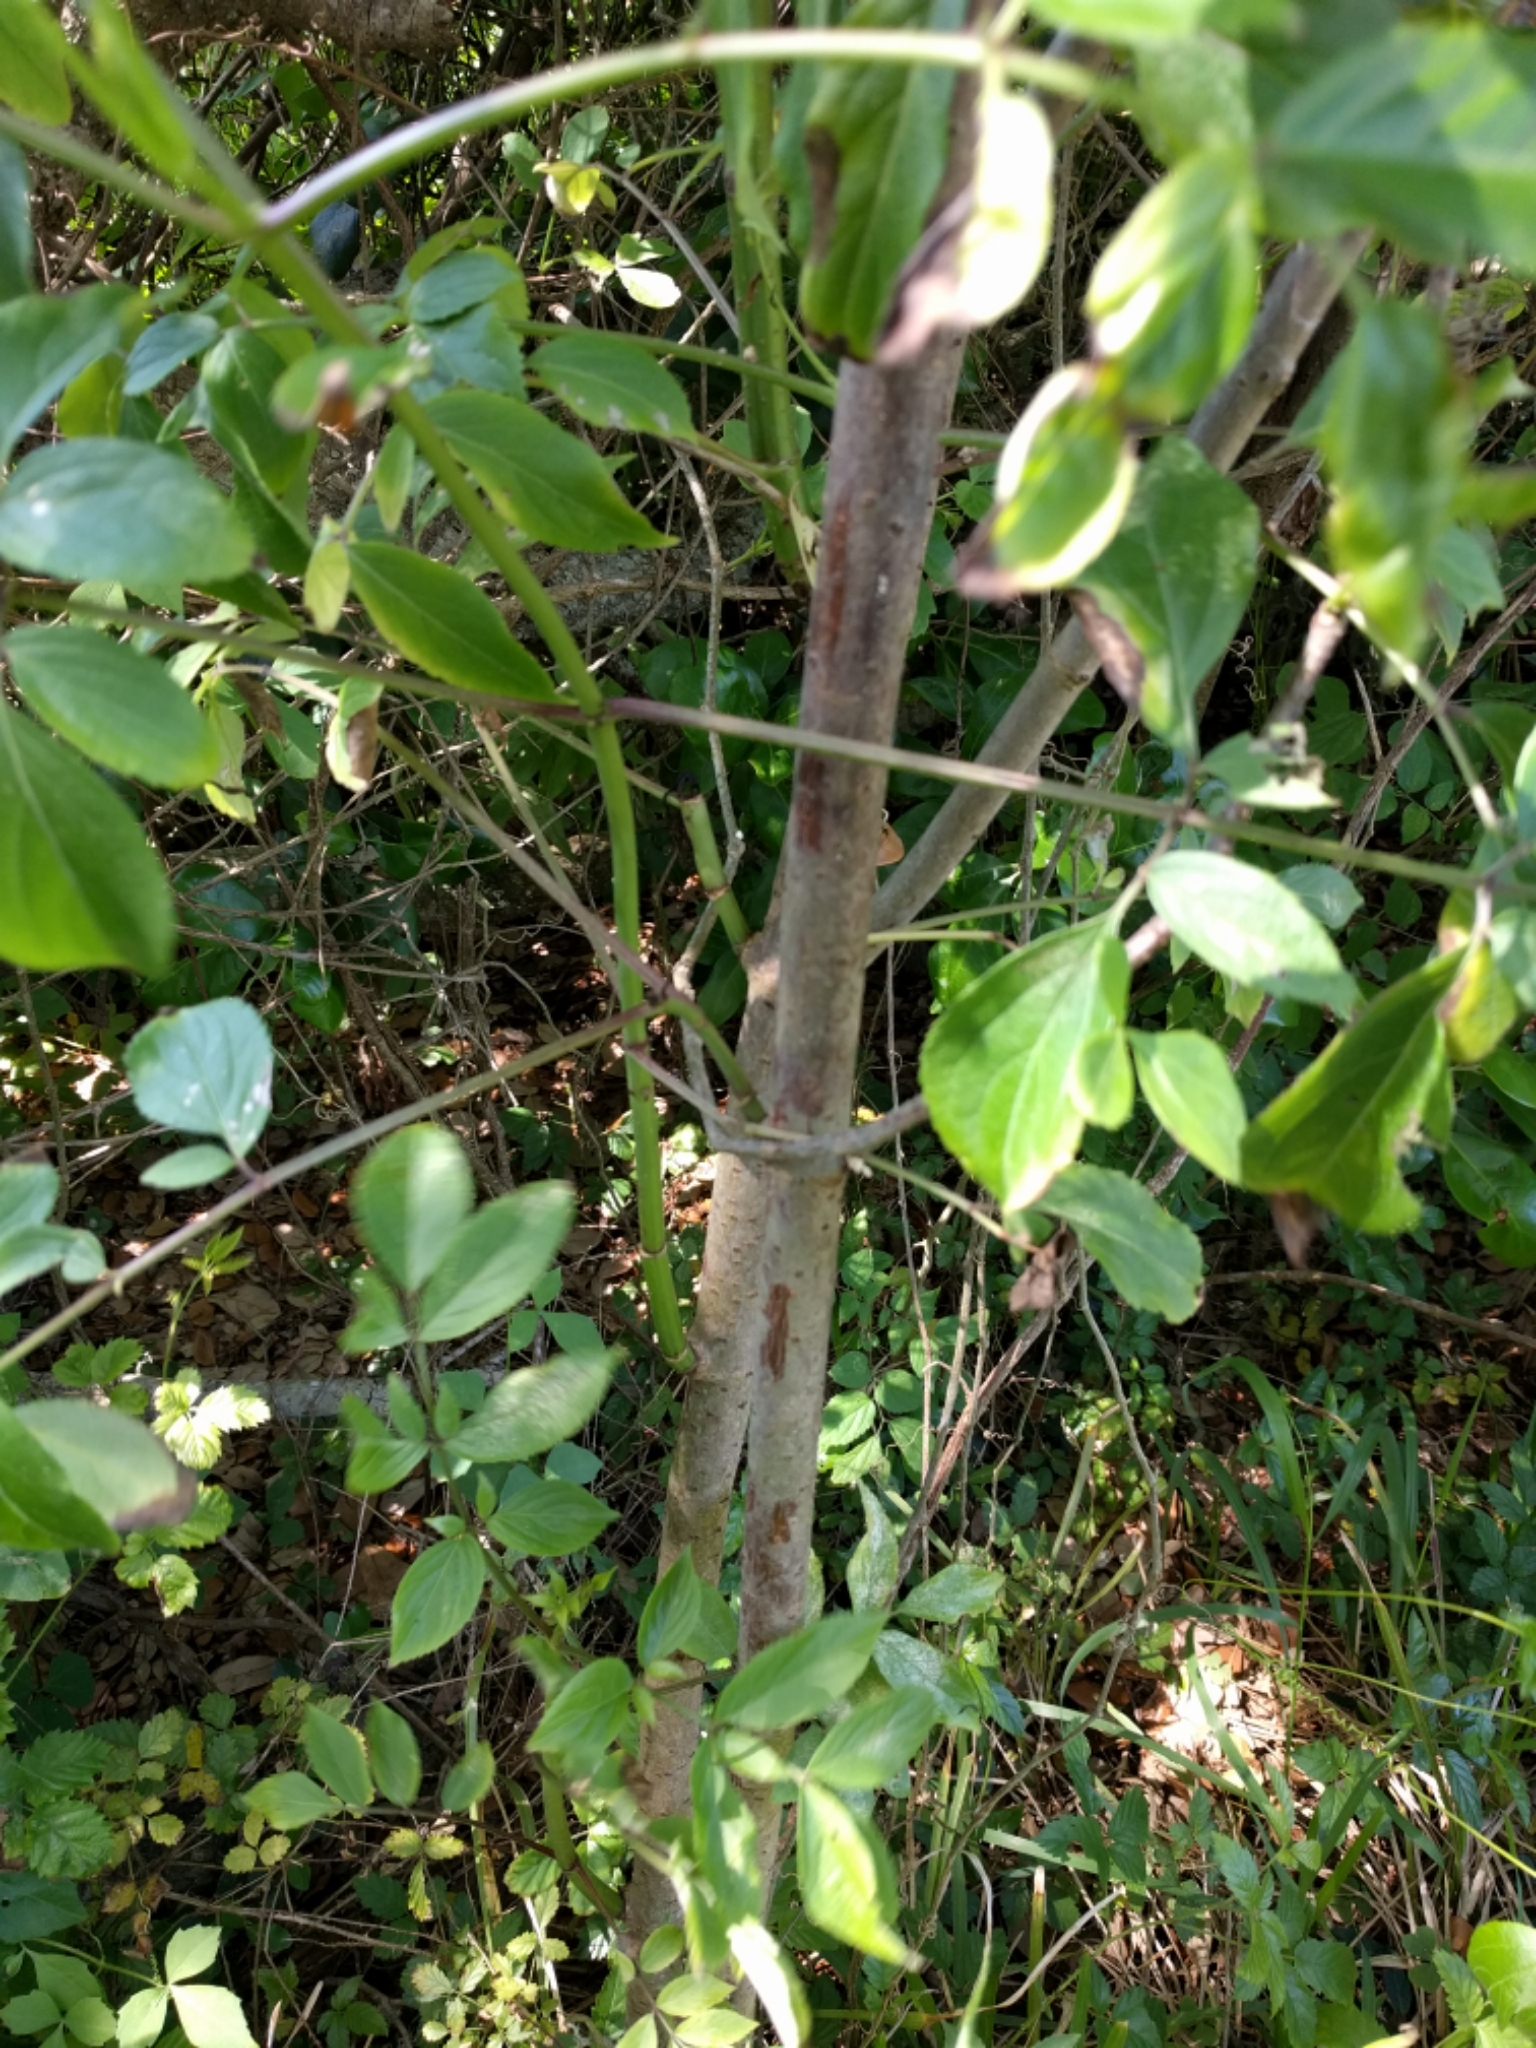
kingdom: Plantae
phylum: Tracheophyta
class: Magnoliopsida
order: Dipsacales
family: Viburnaceae
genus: Sambucus
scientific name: Sambucus canadensis
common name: American elder
